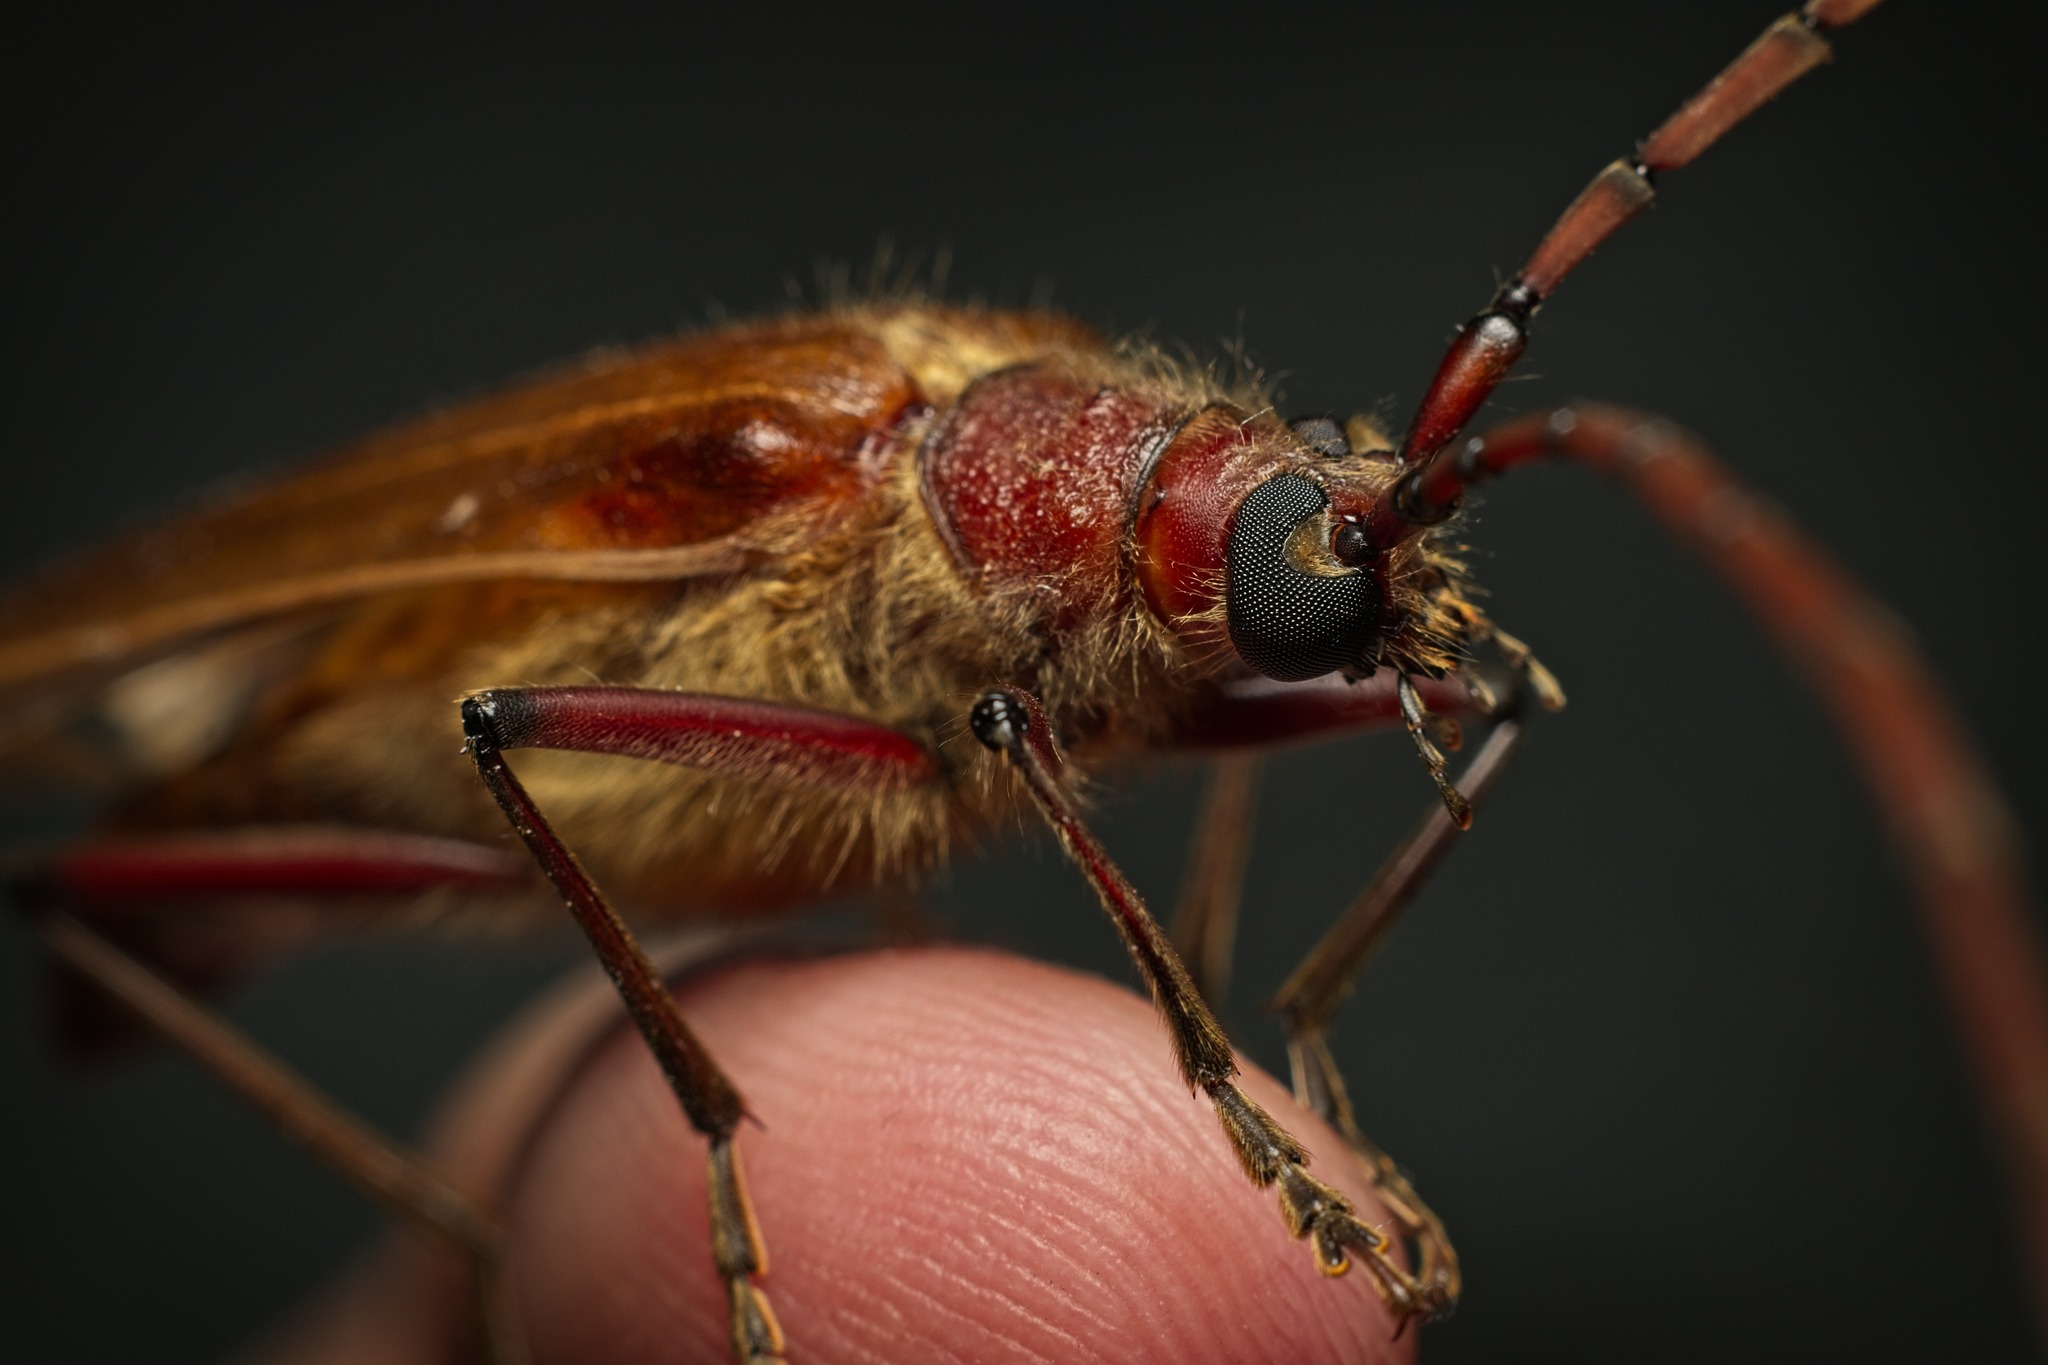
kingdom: Animalia
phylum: Arthropoda
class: Insecta
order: Coleoptera
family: Cerambycidae
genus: Ochrocydus
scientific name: Ochrocydus huttoni
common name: Kanuka longhorn
